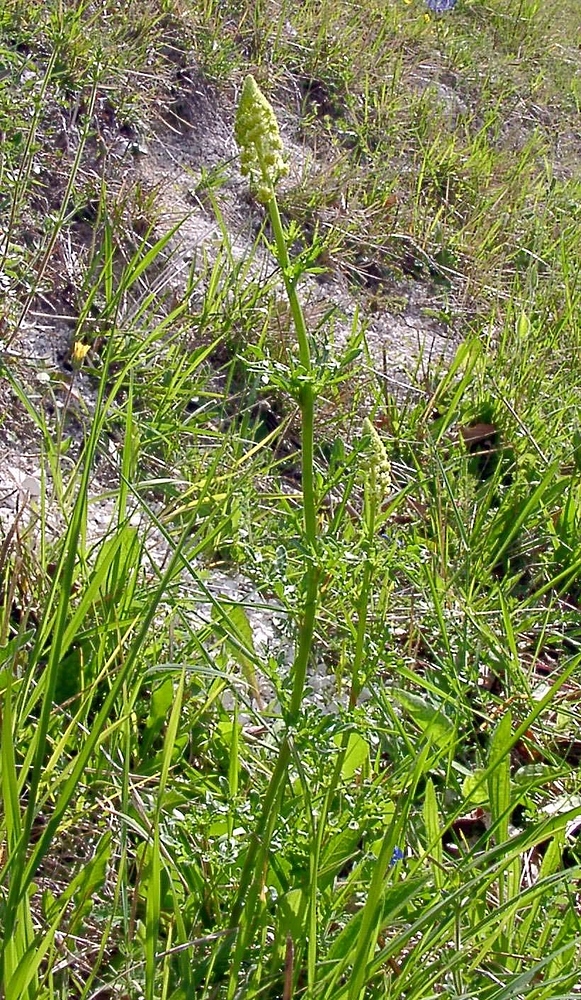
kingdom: Plantae
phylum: Tracheophyta
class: Magnoliopsida
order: Brassicales
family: Resedaceae
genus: Reseda
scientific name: Reseda lutea
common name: Wild mignonette
